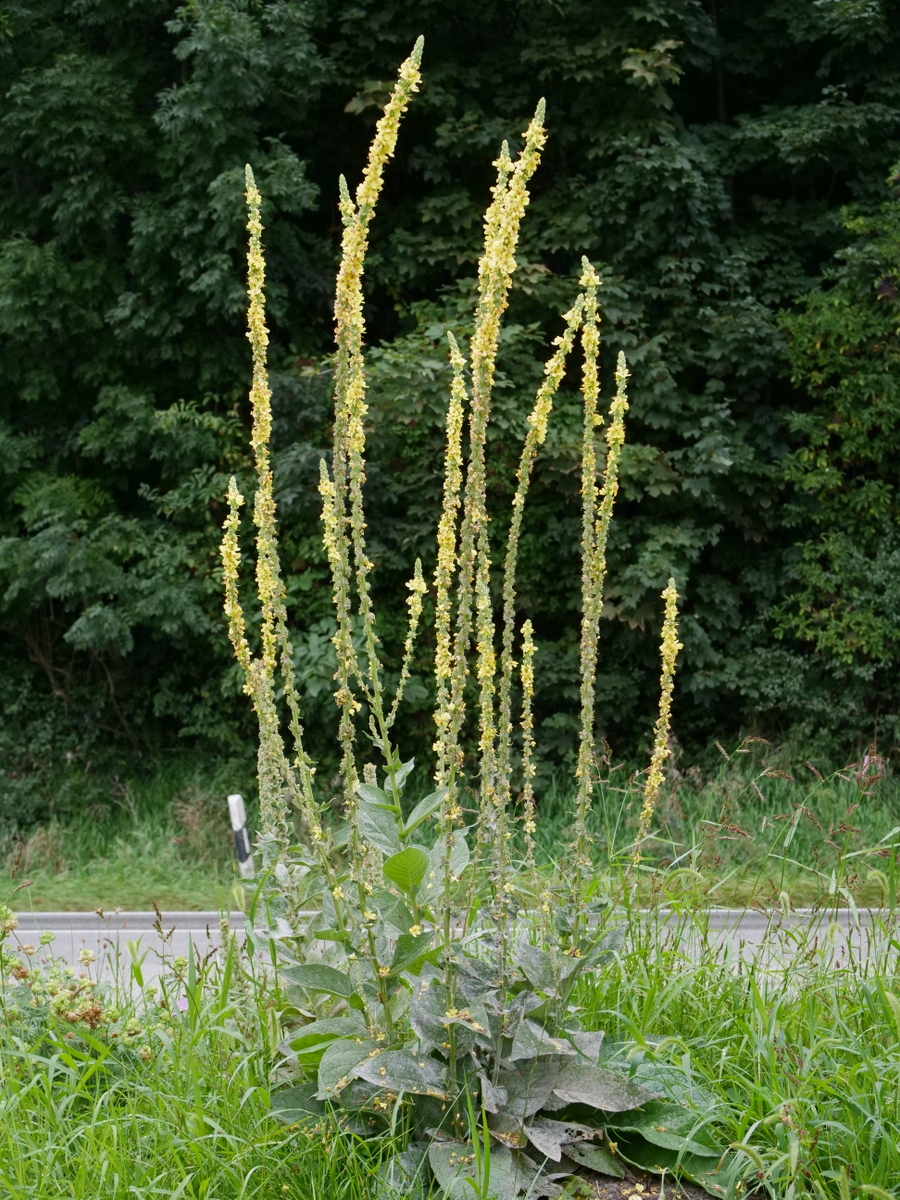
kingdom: Plantae
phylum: Tracheophyta
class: Magnoliopsida
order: Lamiales
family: Scrophulariaceae
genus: Verbascum
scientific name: Verbascum nigrum
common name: Dark mullein
